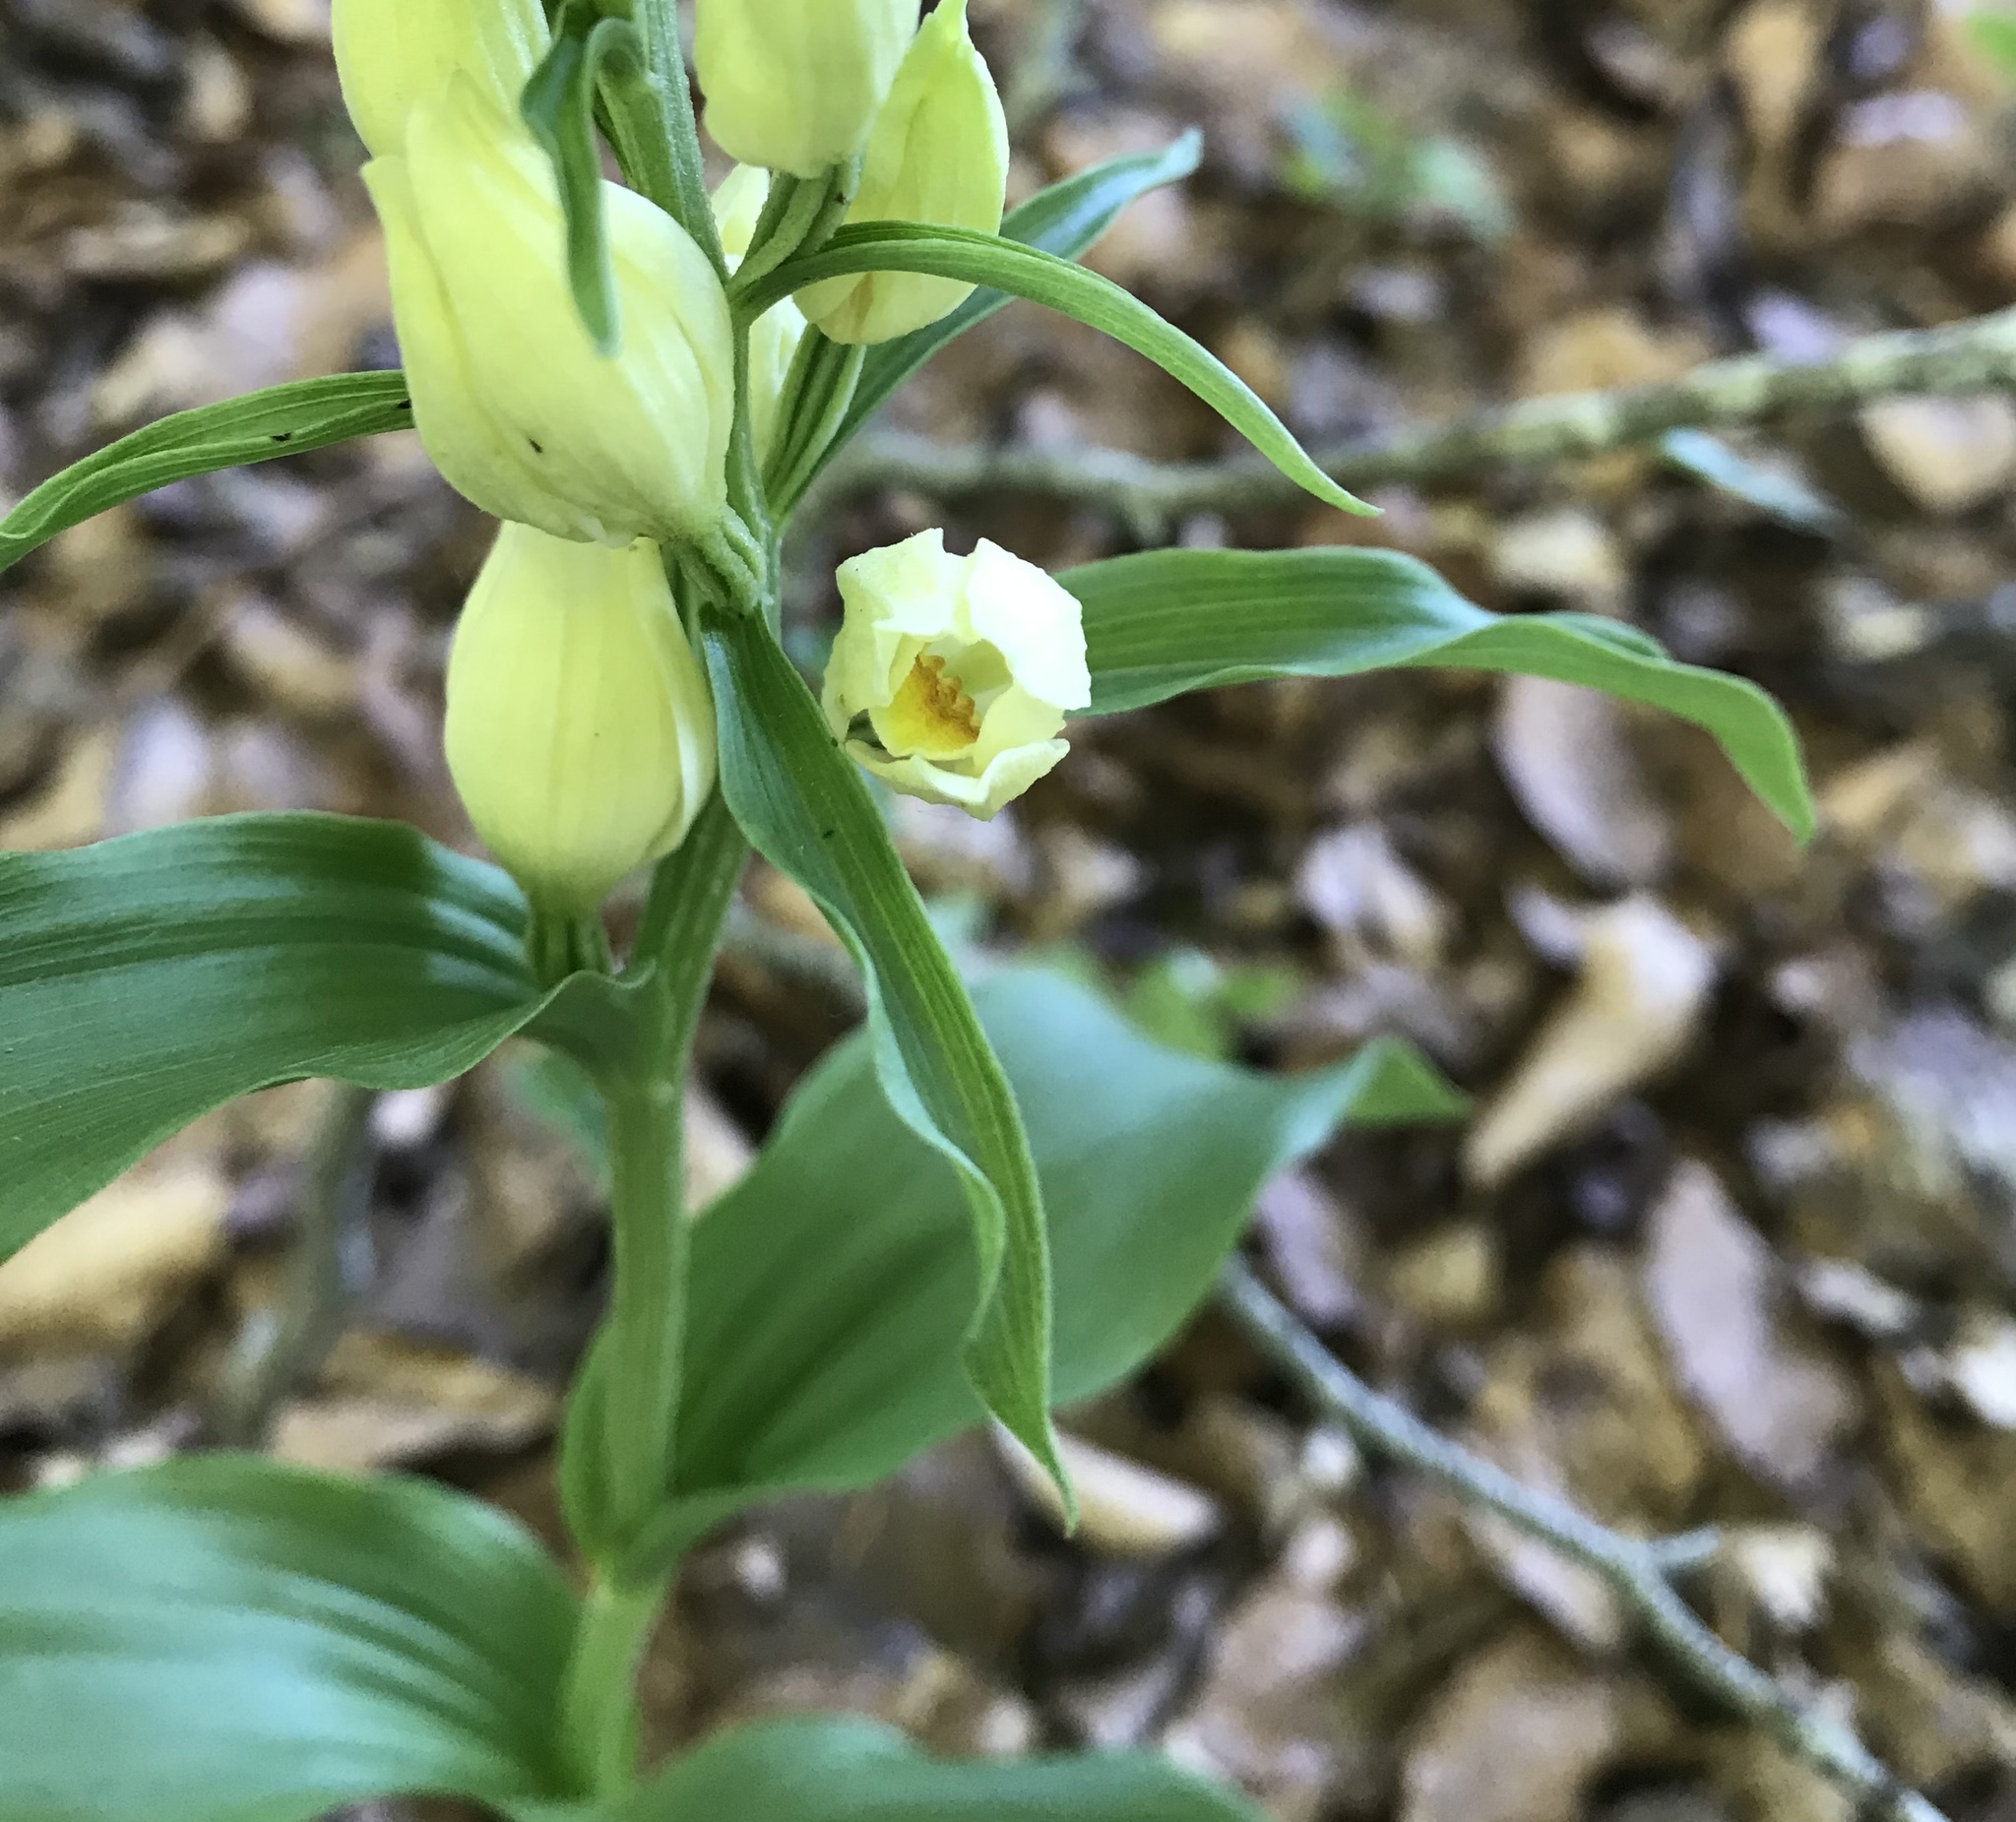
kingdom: Plantae
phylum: Tracheophyta
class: Liliopsida
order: Asparagales
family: Orchidaceae
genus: Cephalanthera
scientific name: Cephalanthera damasonium
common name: White helleborine
